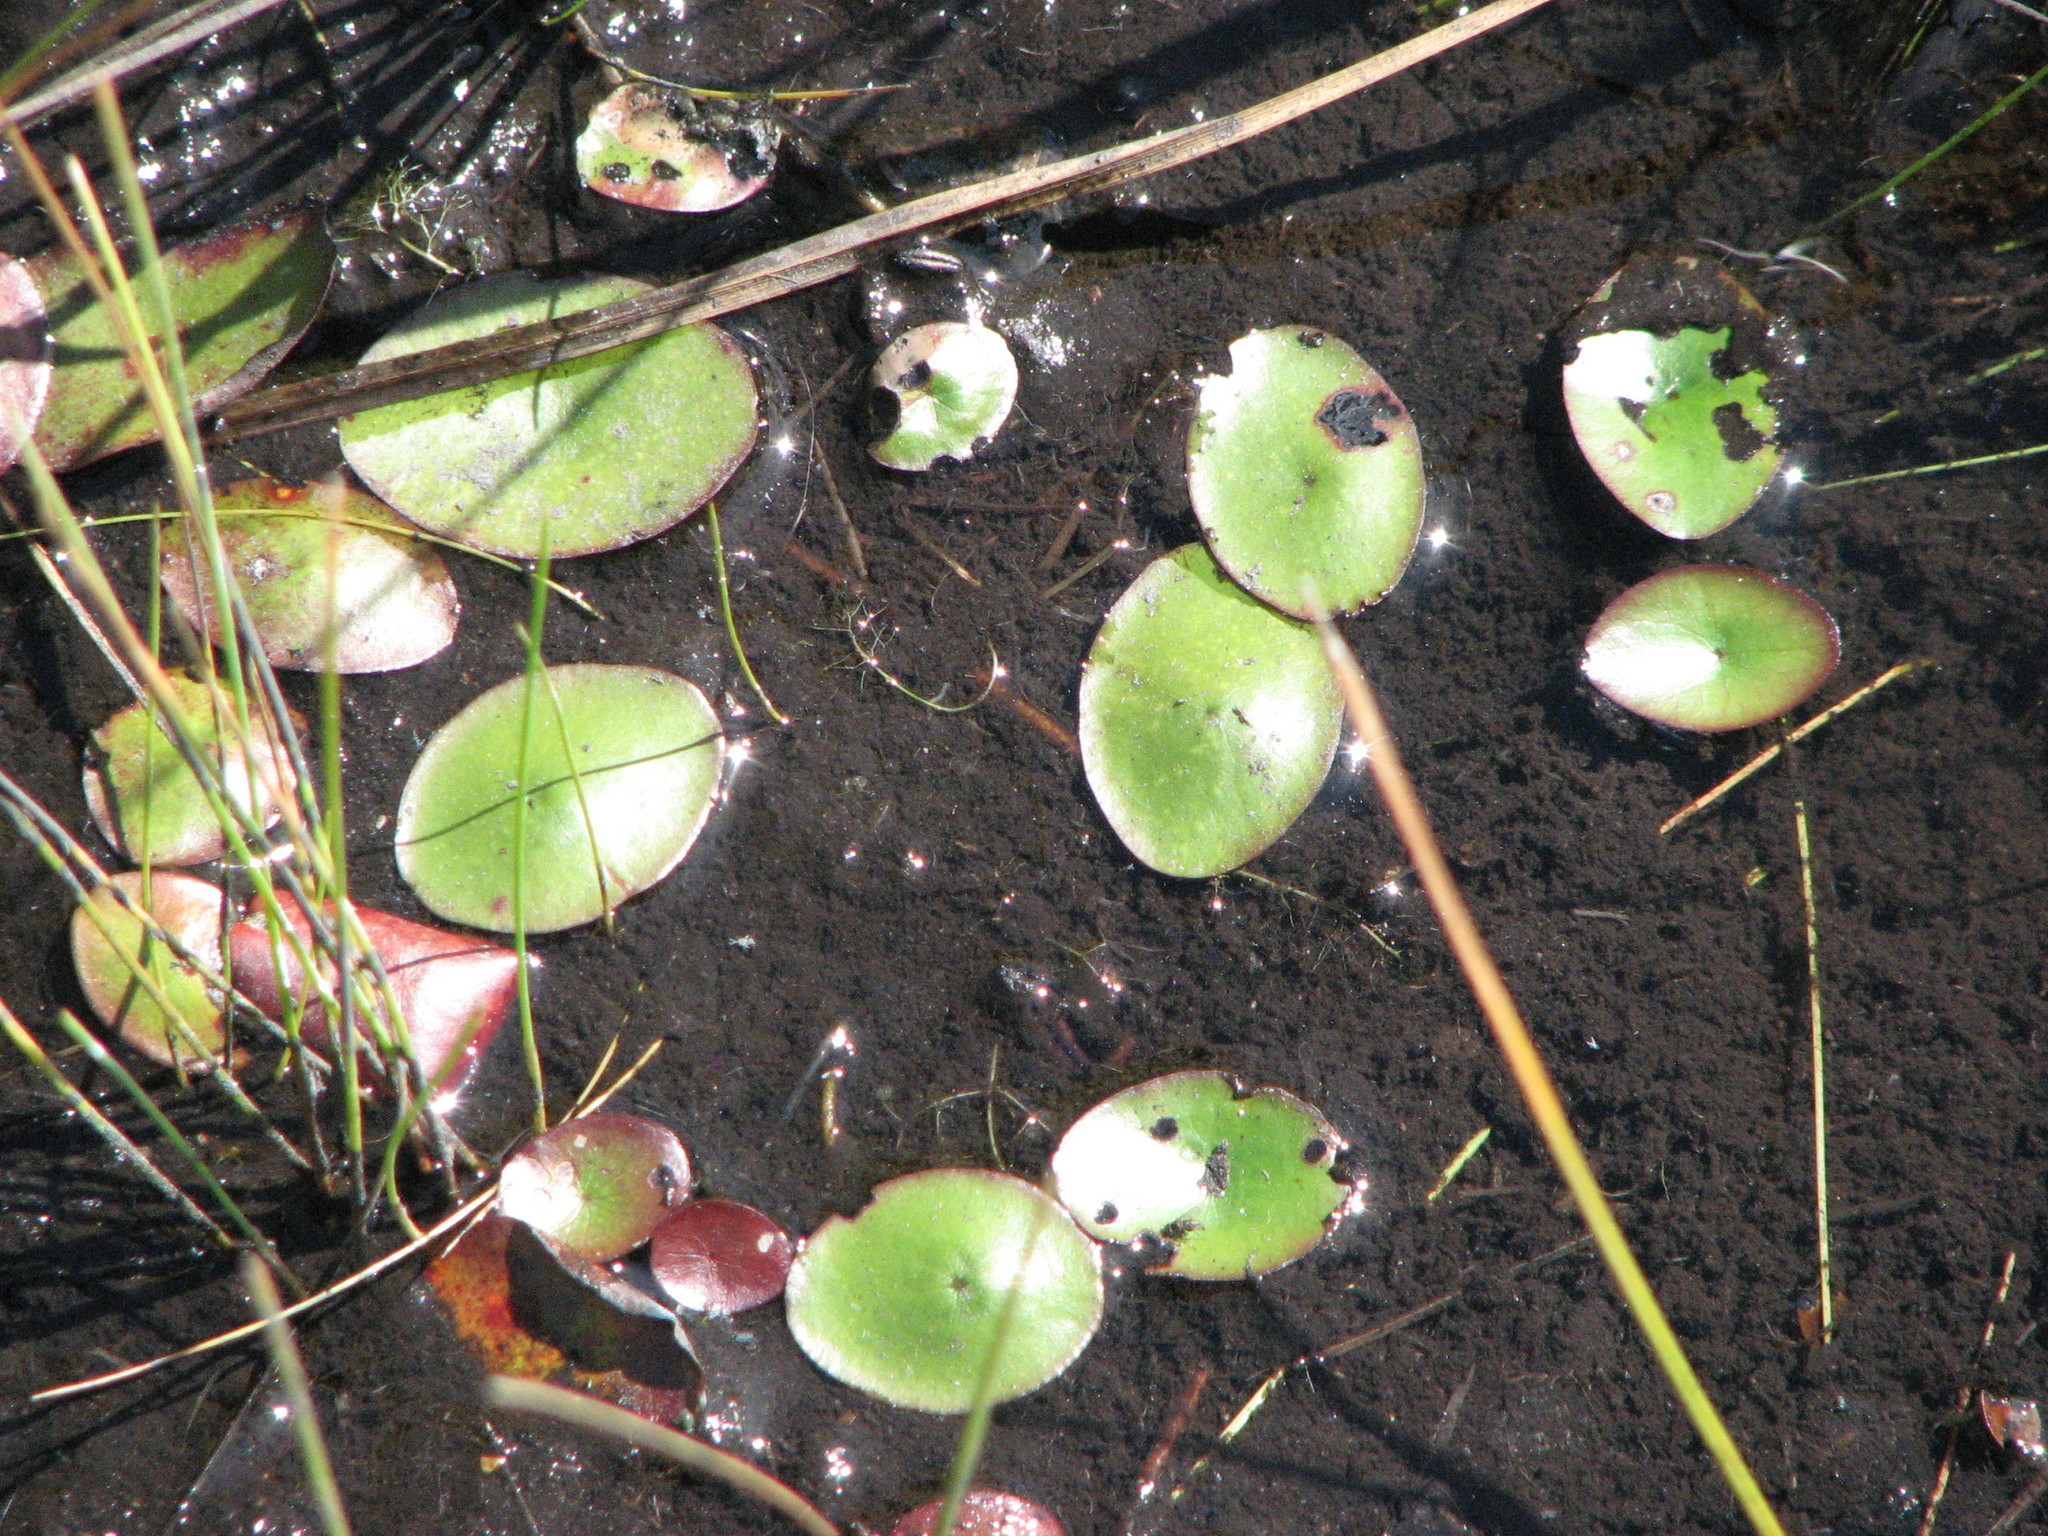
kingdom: Plantae
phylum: Tracheophyta
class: Magnoliopsida
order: Nymphaeales
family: Cabombaceae
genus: Brasenia
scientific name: Brasenia schreberi
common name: Water-shield
